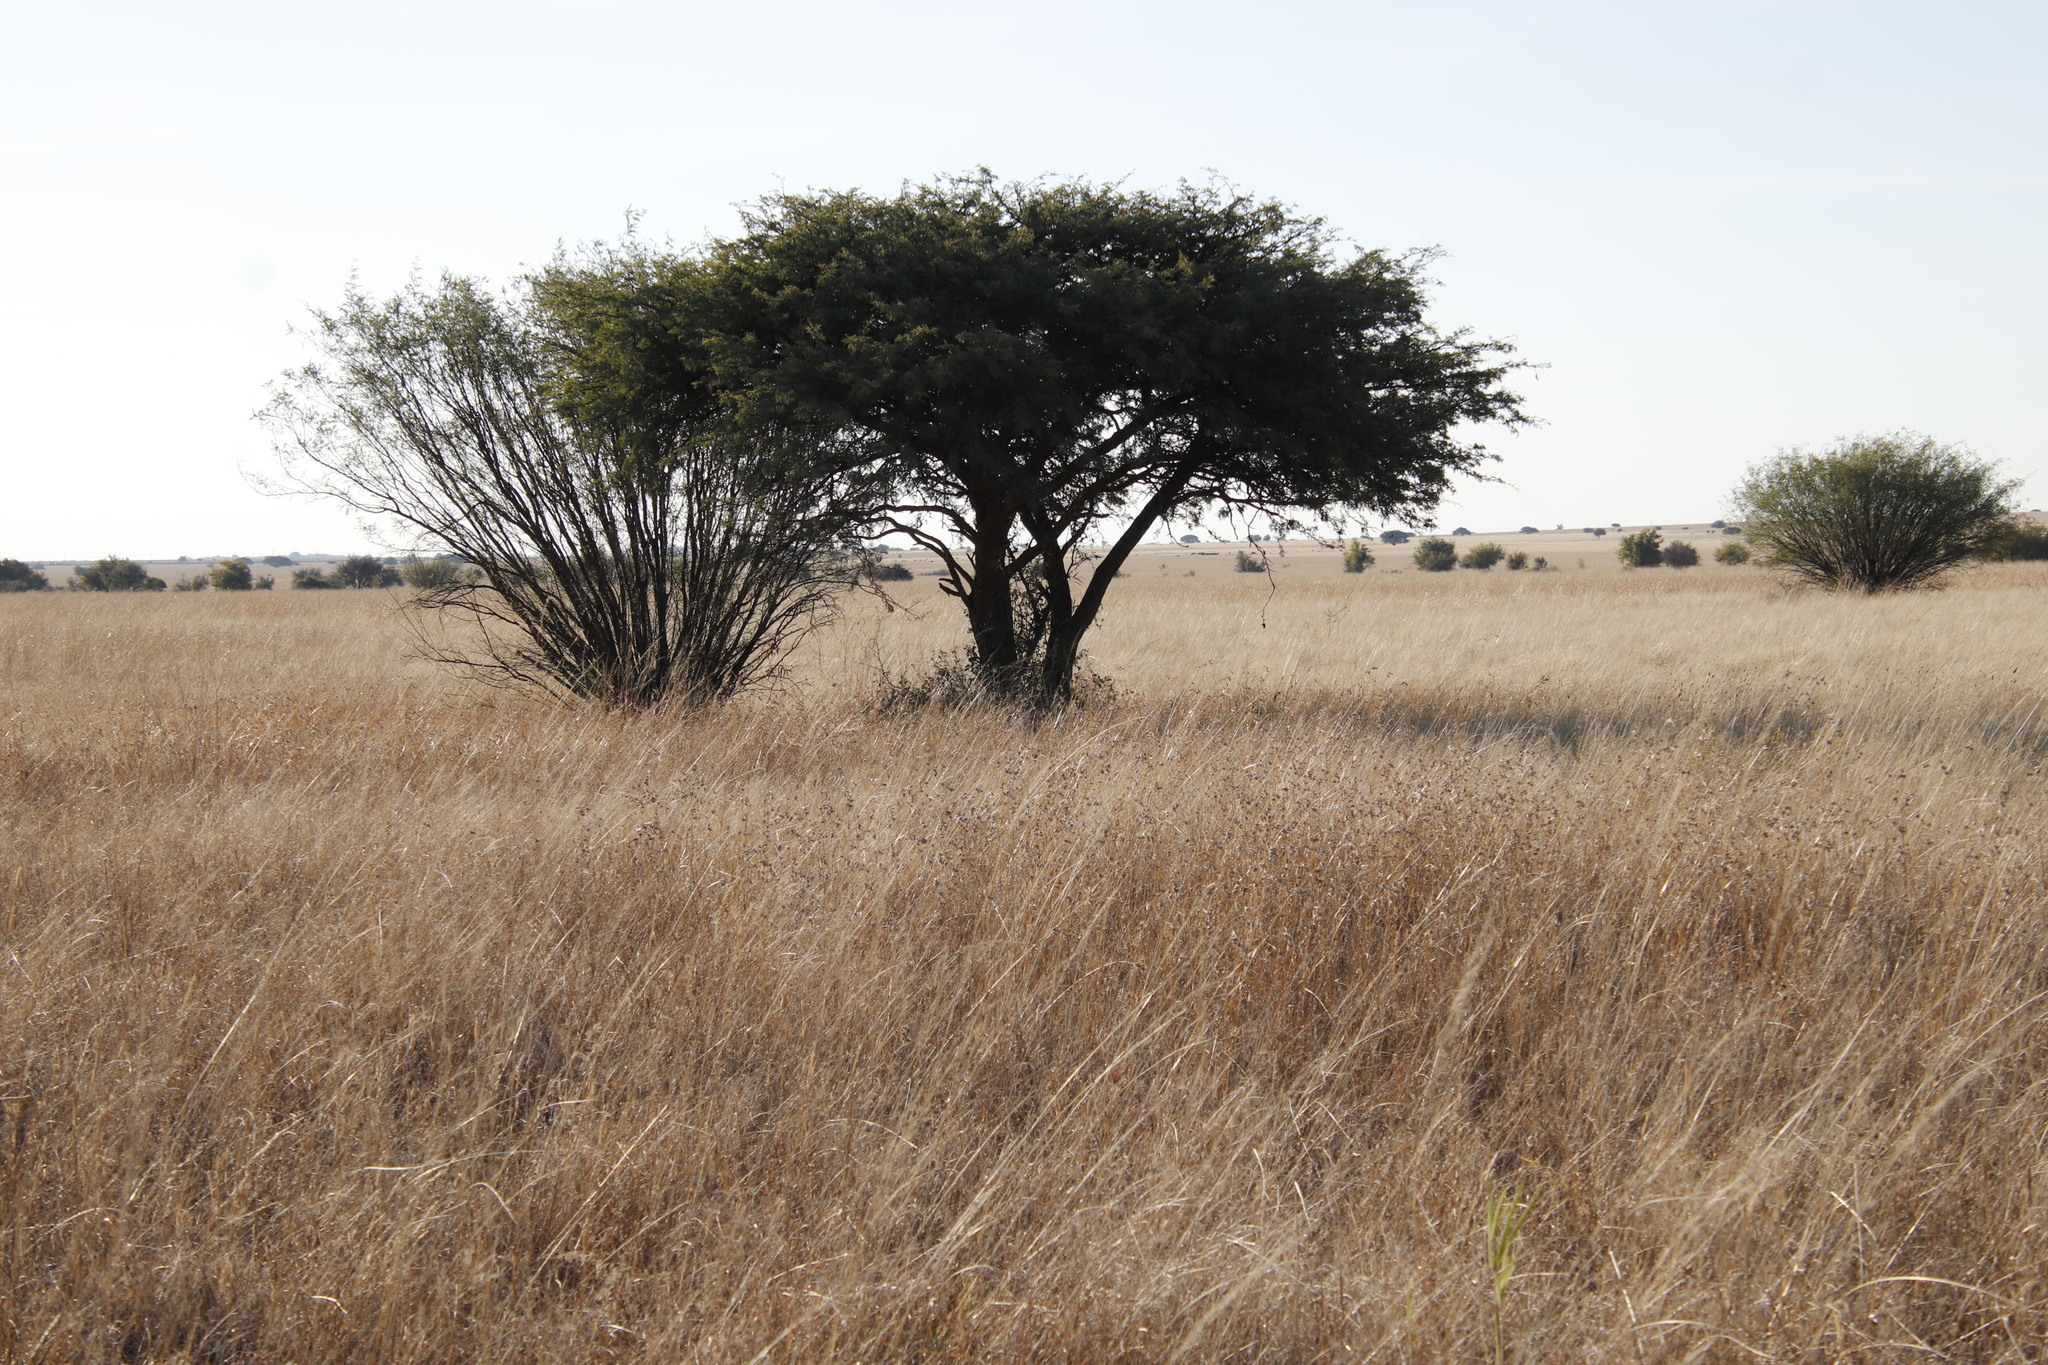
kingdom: Plantae
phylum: Tracheophyta
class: Magnoliopsida
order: Fabales
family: Fabaceae
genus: Vachellia
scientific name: Vachellia karroo
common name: Sweet thorn
